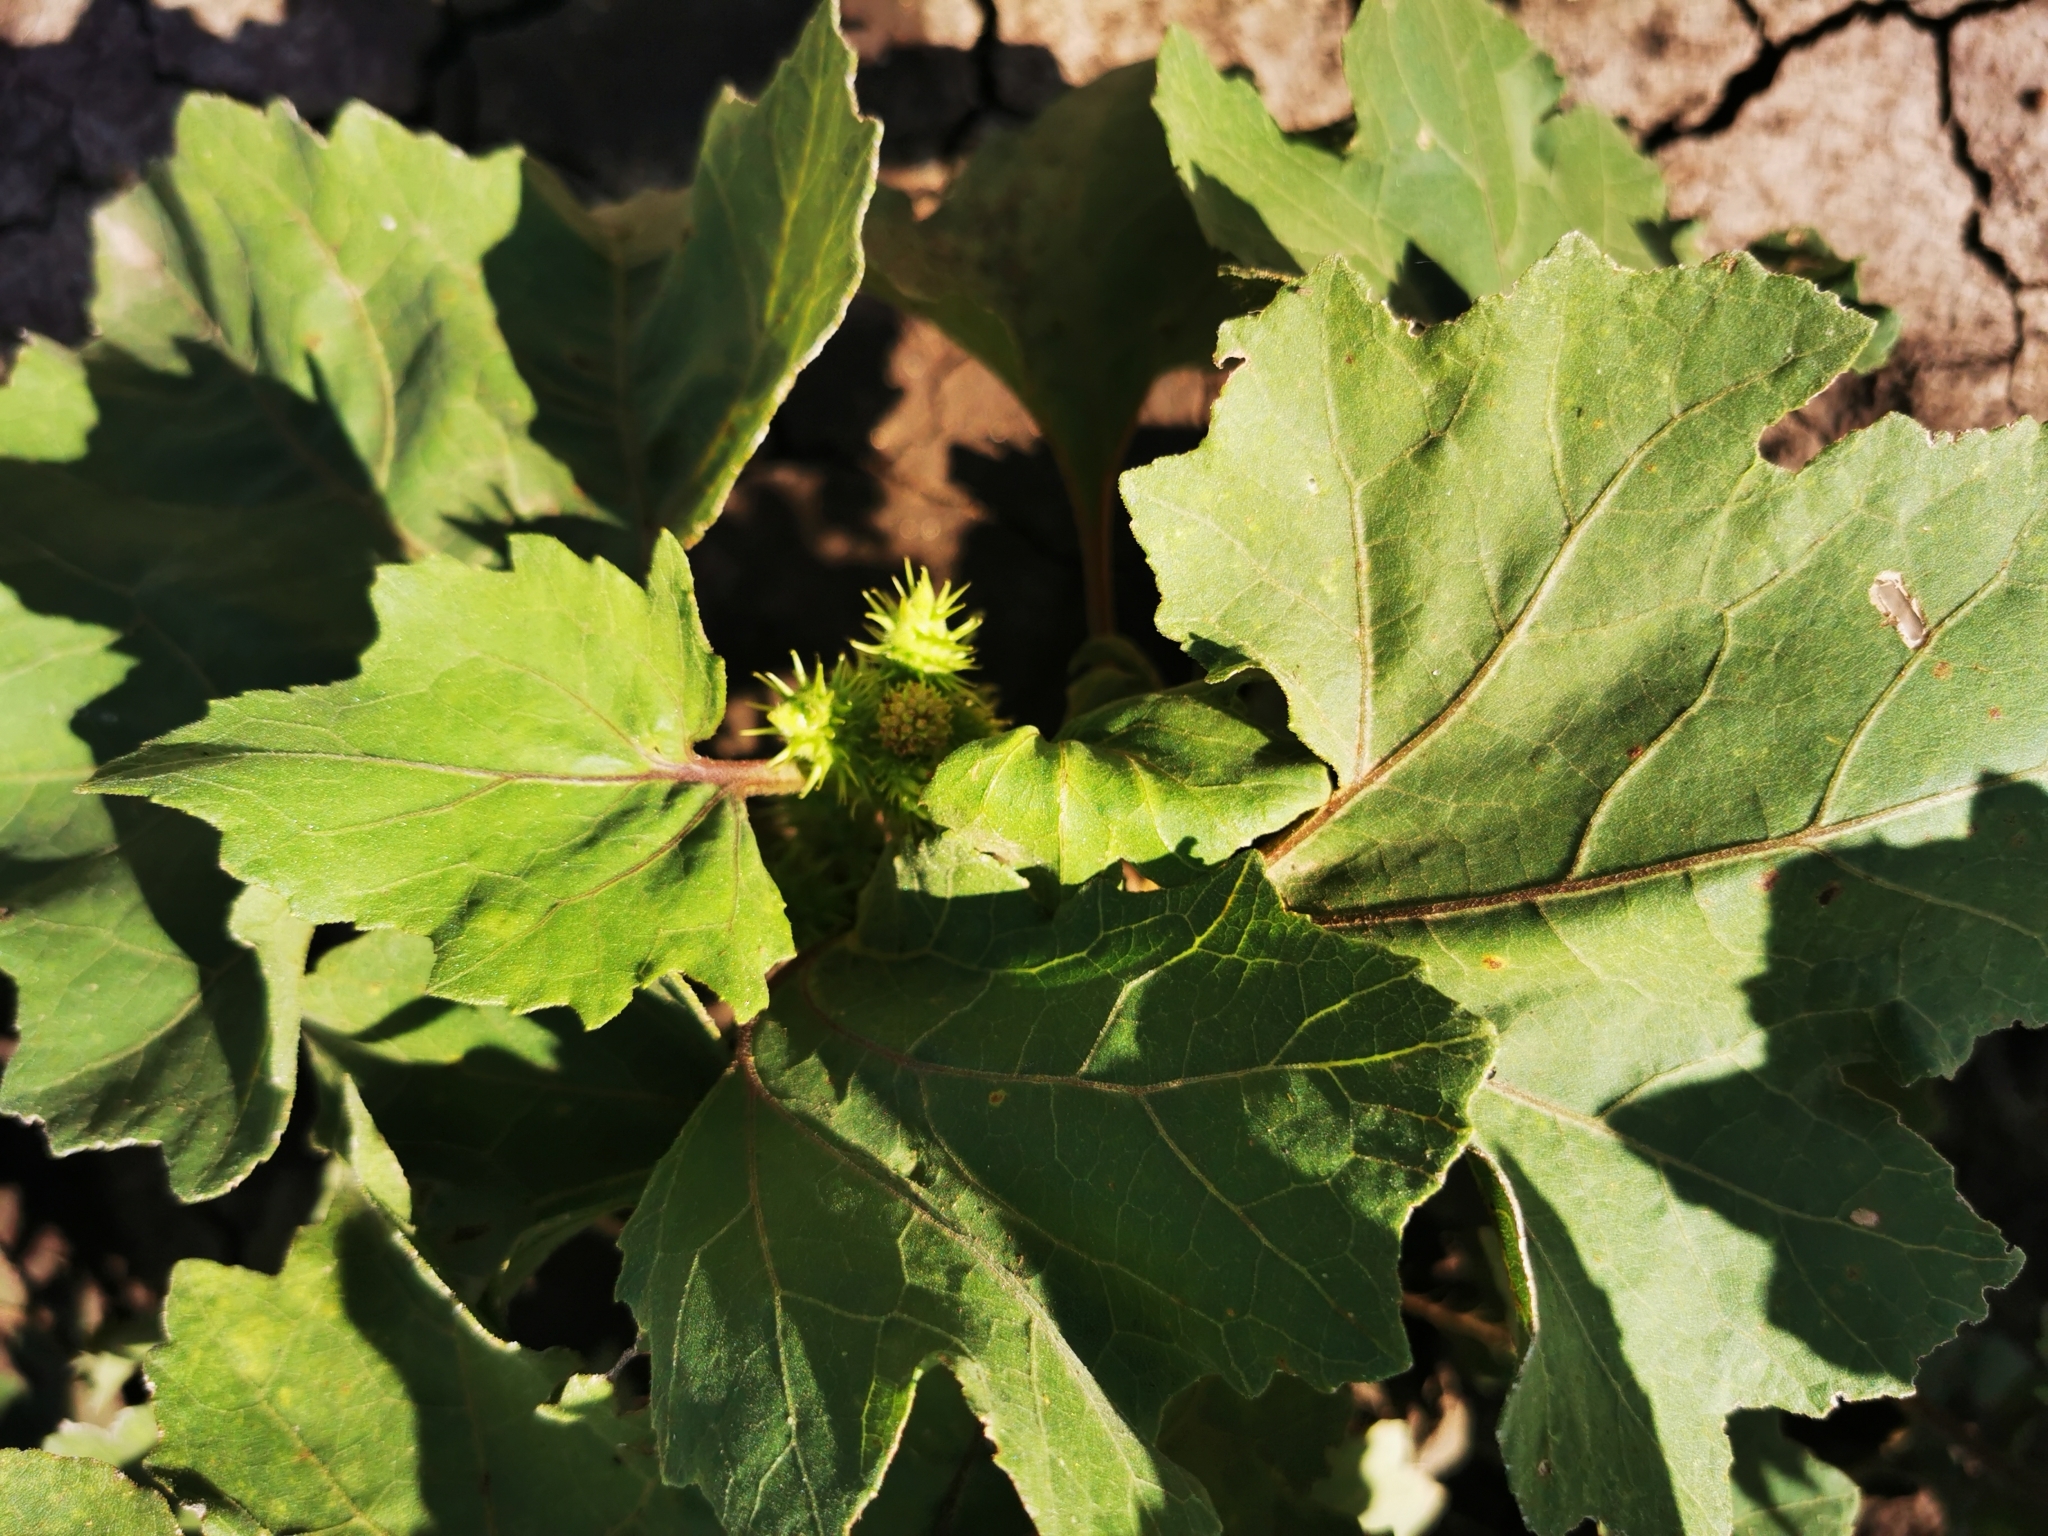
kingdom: Plantae
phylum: Tracheophyta
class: Magnoliopsida
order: Asterales
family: Asteraceae
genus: Xanthium
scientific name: Xanthium strumarium
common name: Rough cocklebur
